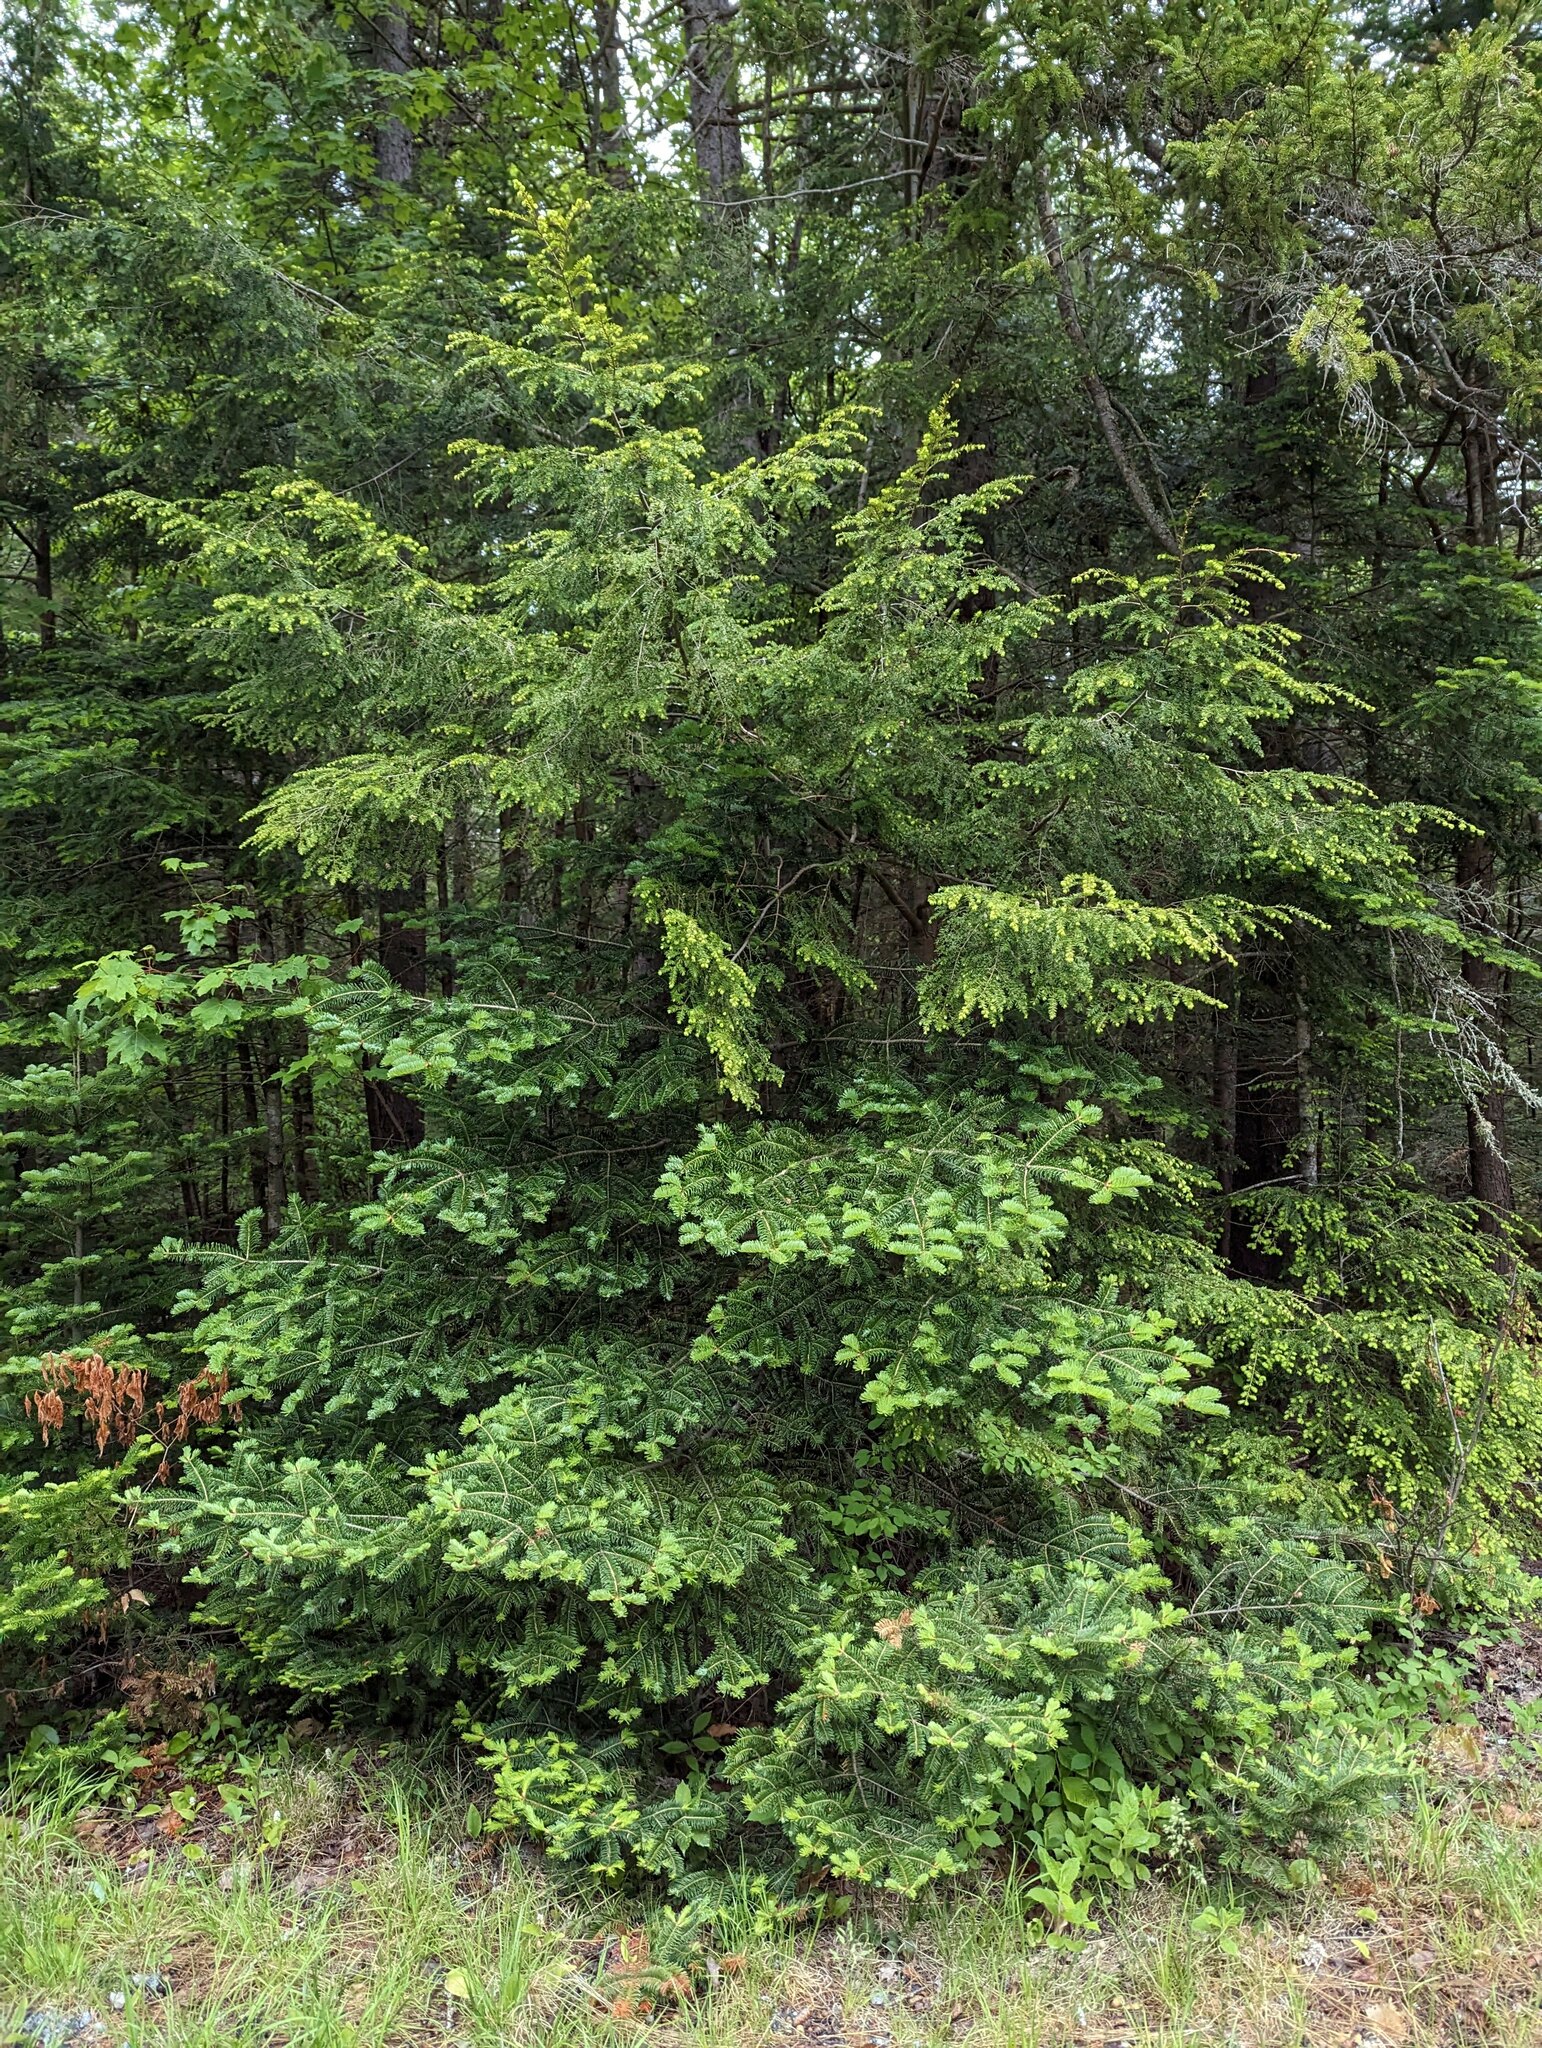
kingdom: Plantae
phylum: Tracheophyta
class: Pinopsida
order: Pinales
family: Pinaceae
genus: Abies
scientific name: Abies balsamea
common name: Balsam fir
